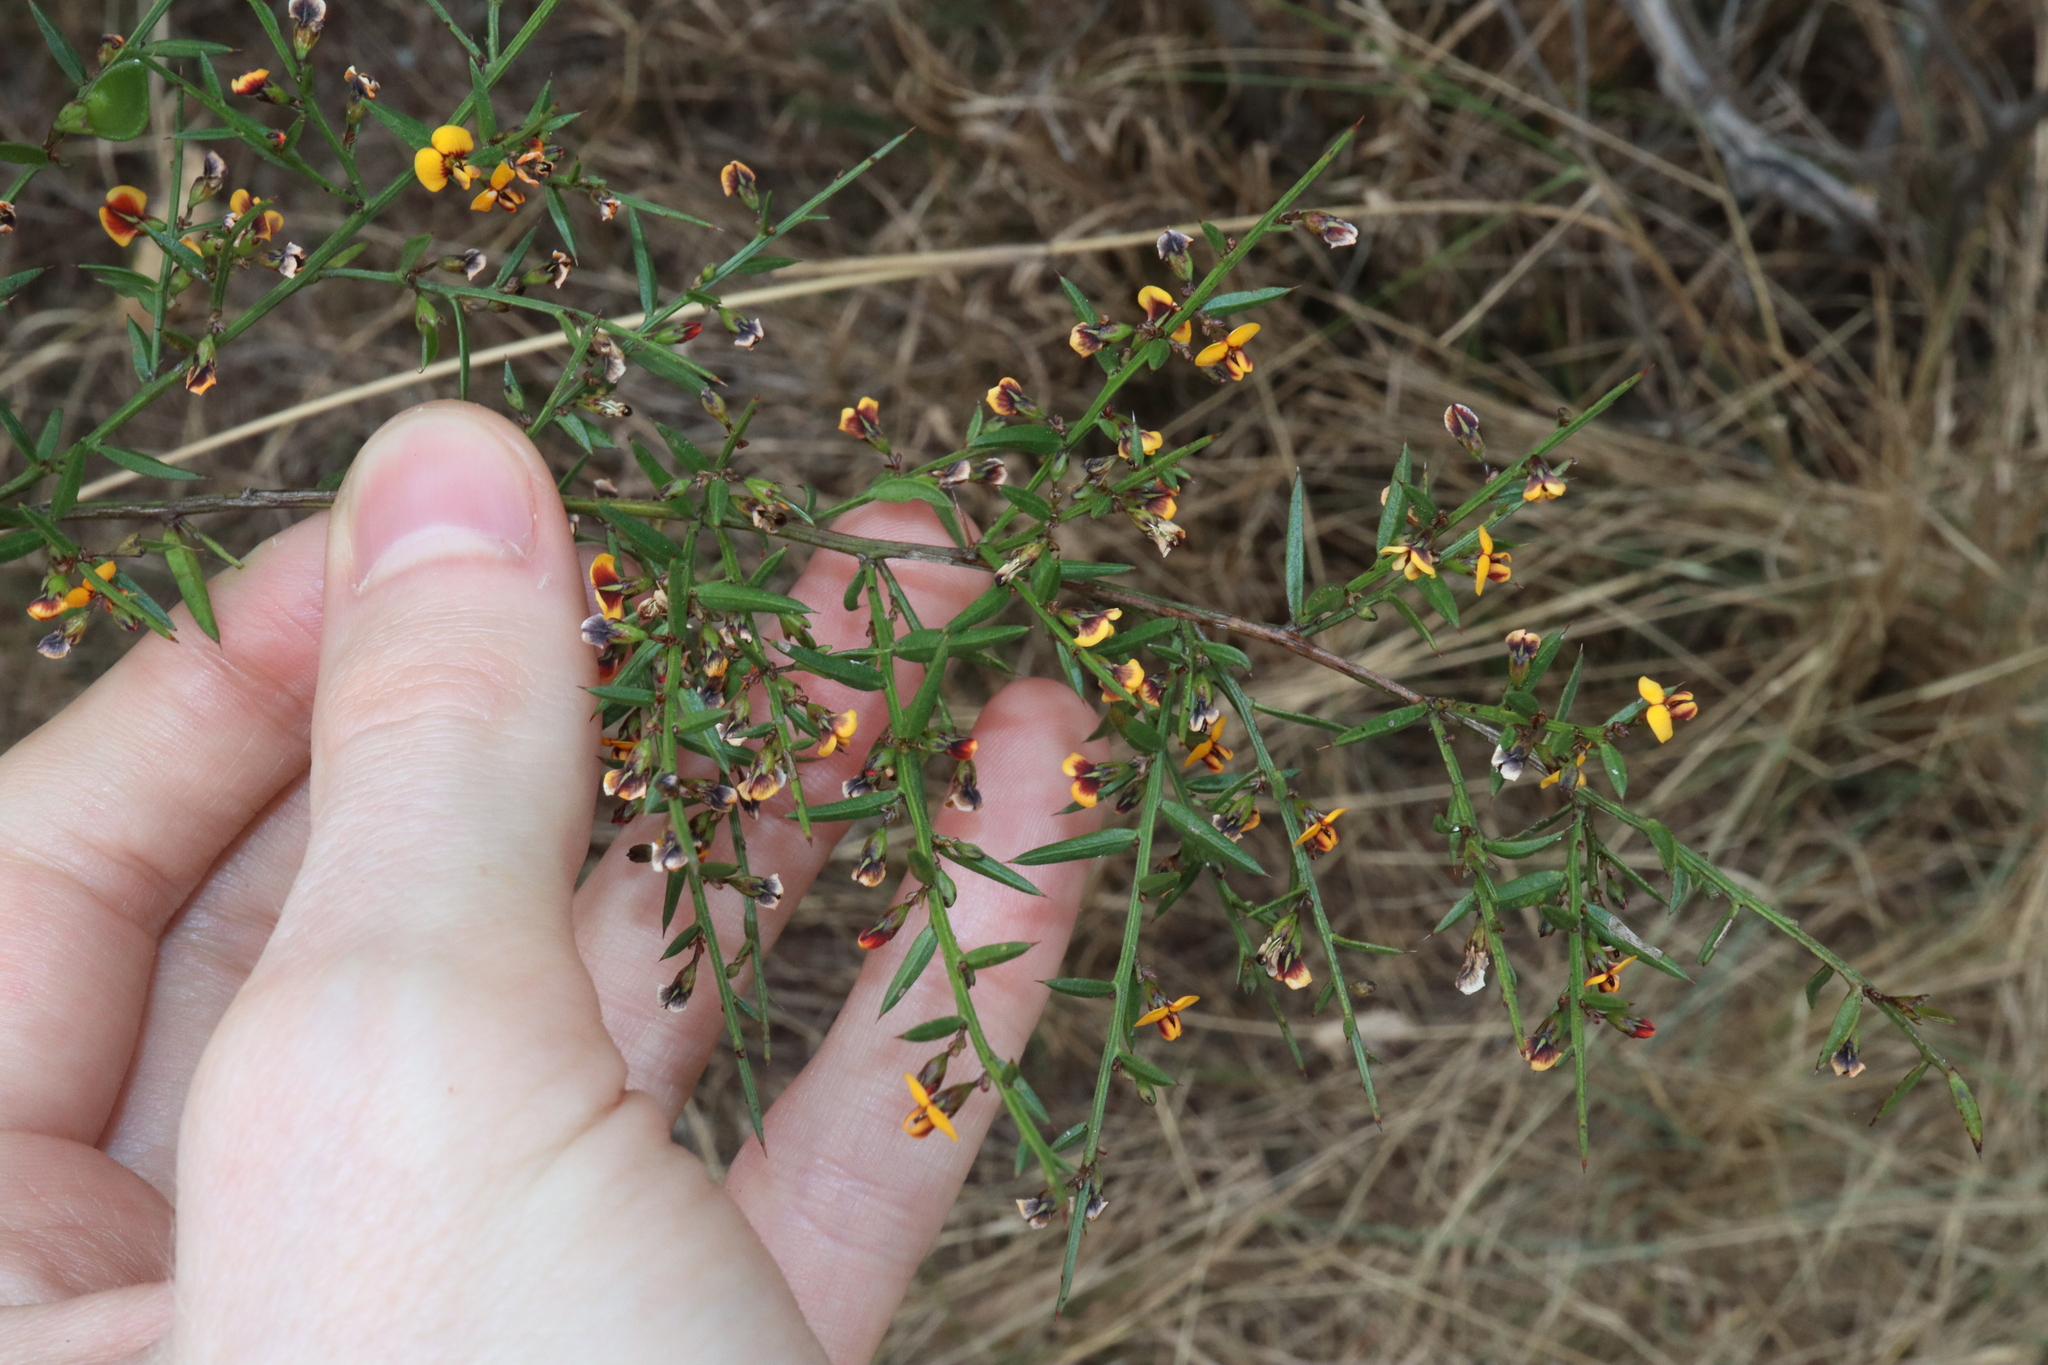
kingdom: Plantae
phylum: Tracheophyta
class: Magnoliopsida
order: Fabales
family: Fabaceae
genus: Daviesia
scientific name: Daviesia ulicifolia
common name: Gorse bitter-pea
